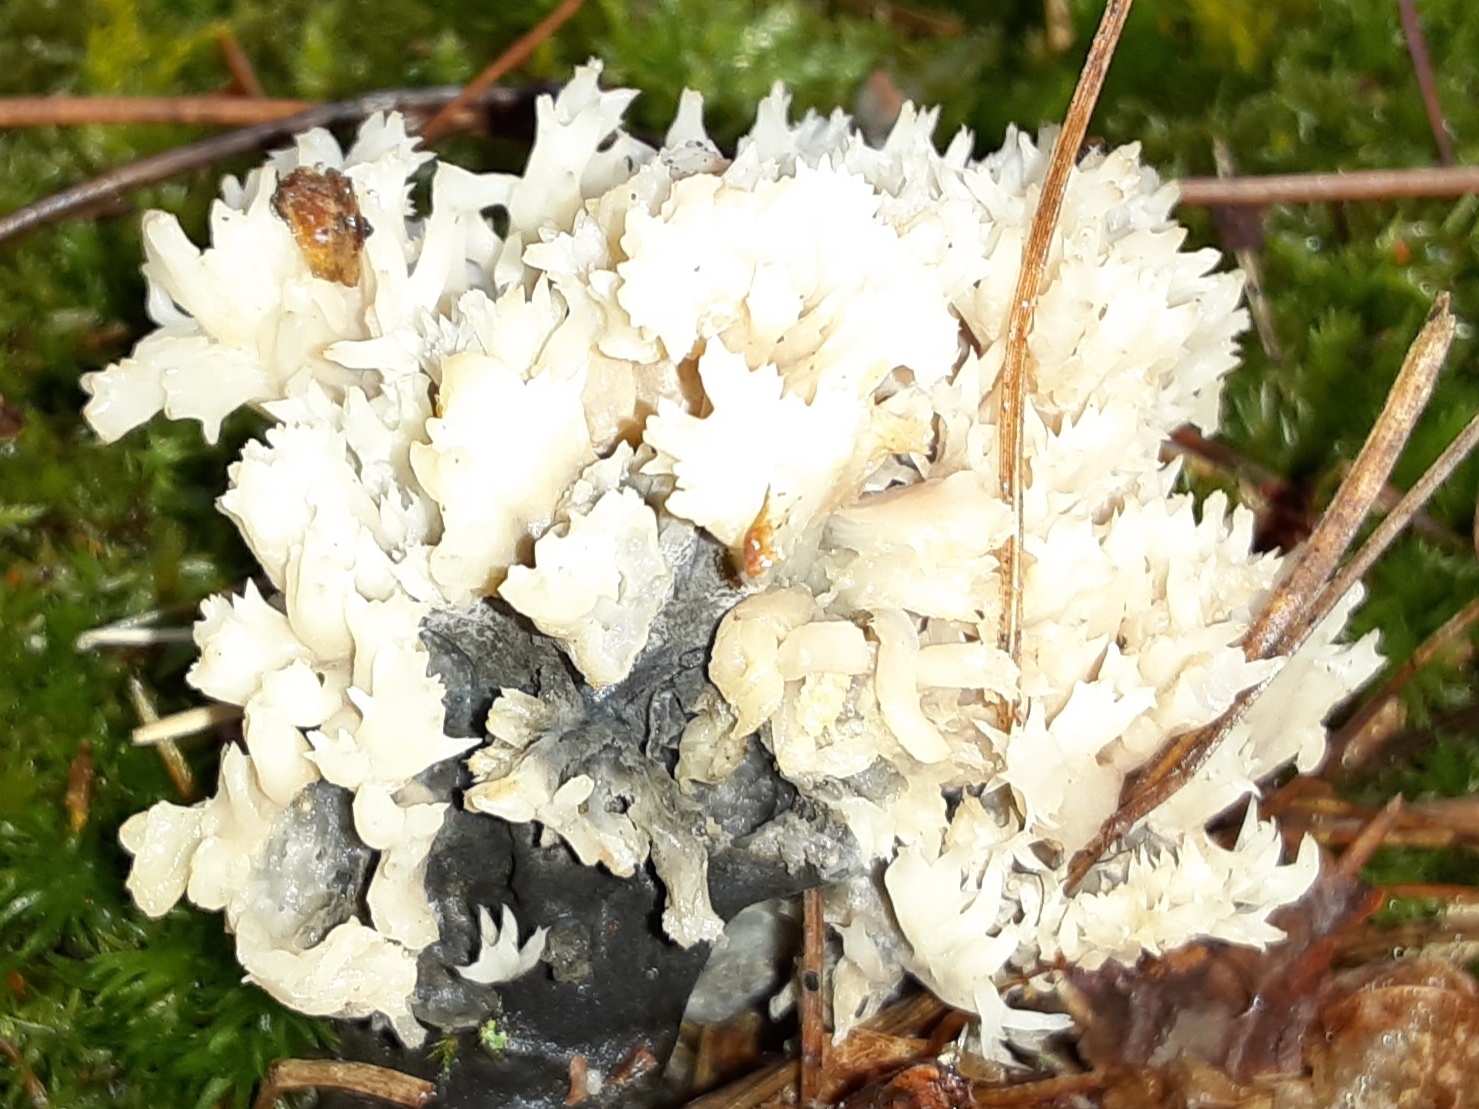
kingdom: Fungi
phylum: Basidiomycota
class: Agaricomycetes
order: Cantharellales
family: Hydnaceae
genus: Clavulina
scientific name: Clavulina coralloides
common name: Crested coral
